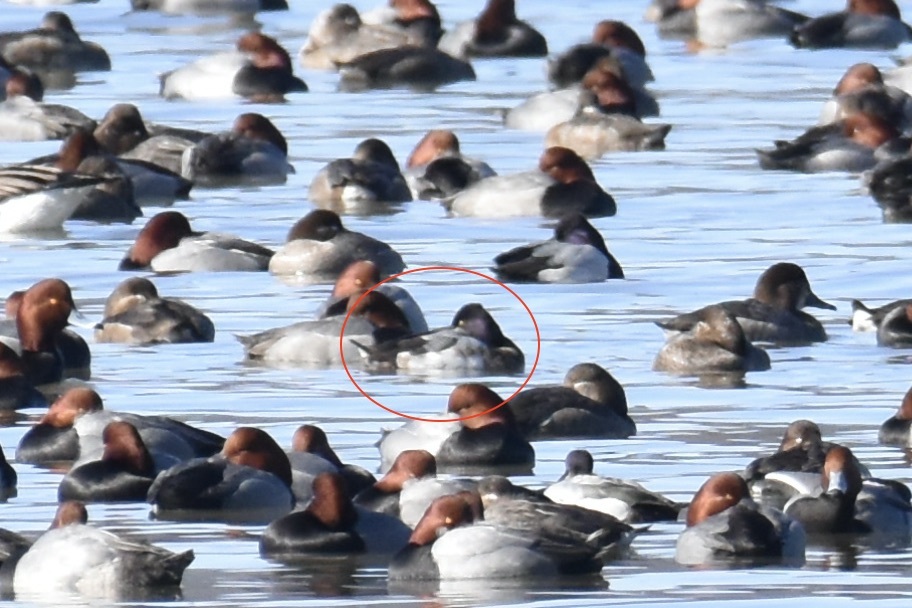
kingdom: Animalia
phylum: Chordata
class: Aves
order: Anseriformes
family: Anatidae
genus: Aythya
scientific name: Aythya affinis
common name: Lesser scaup
